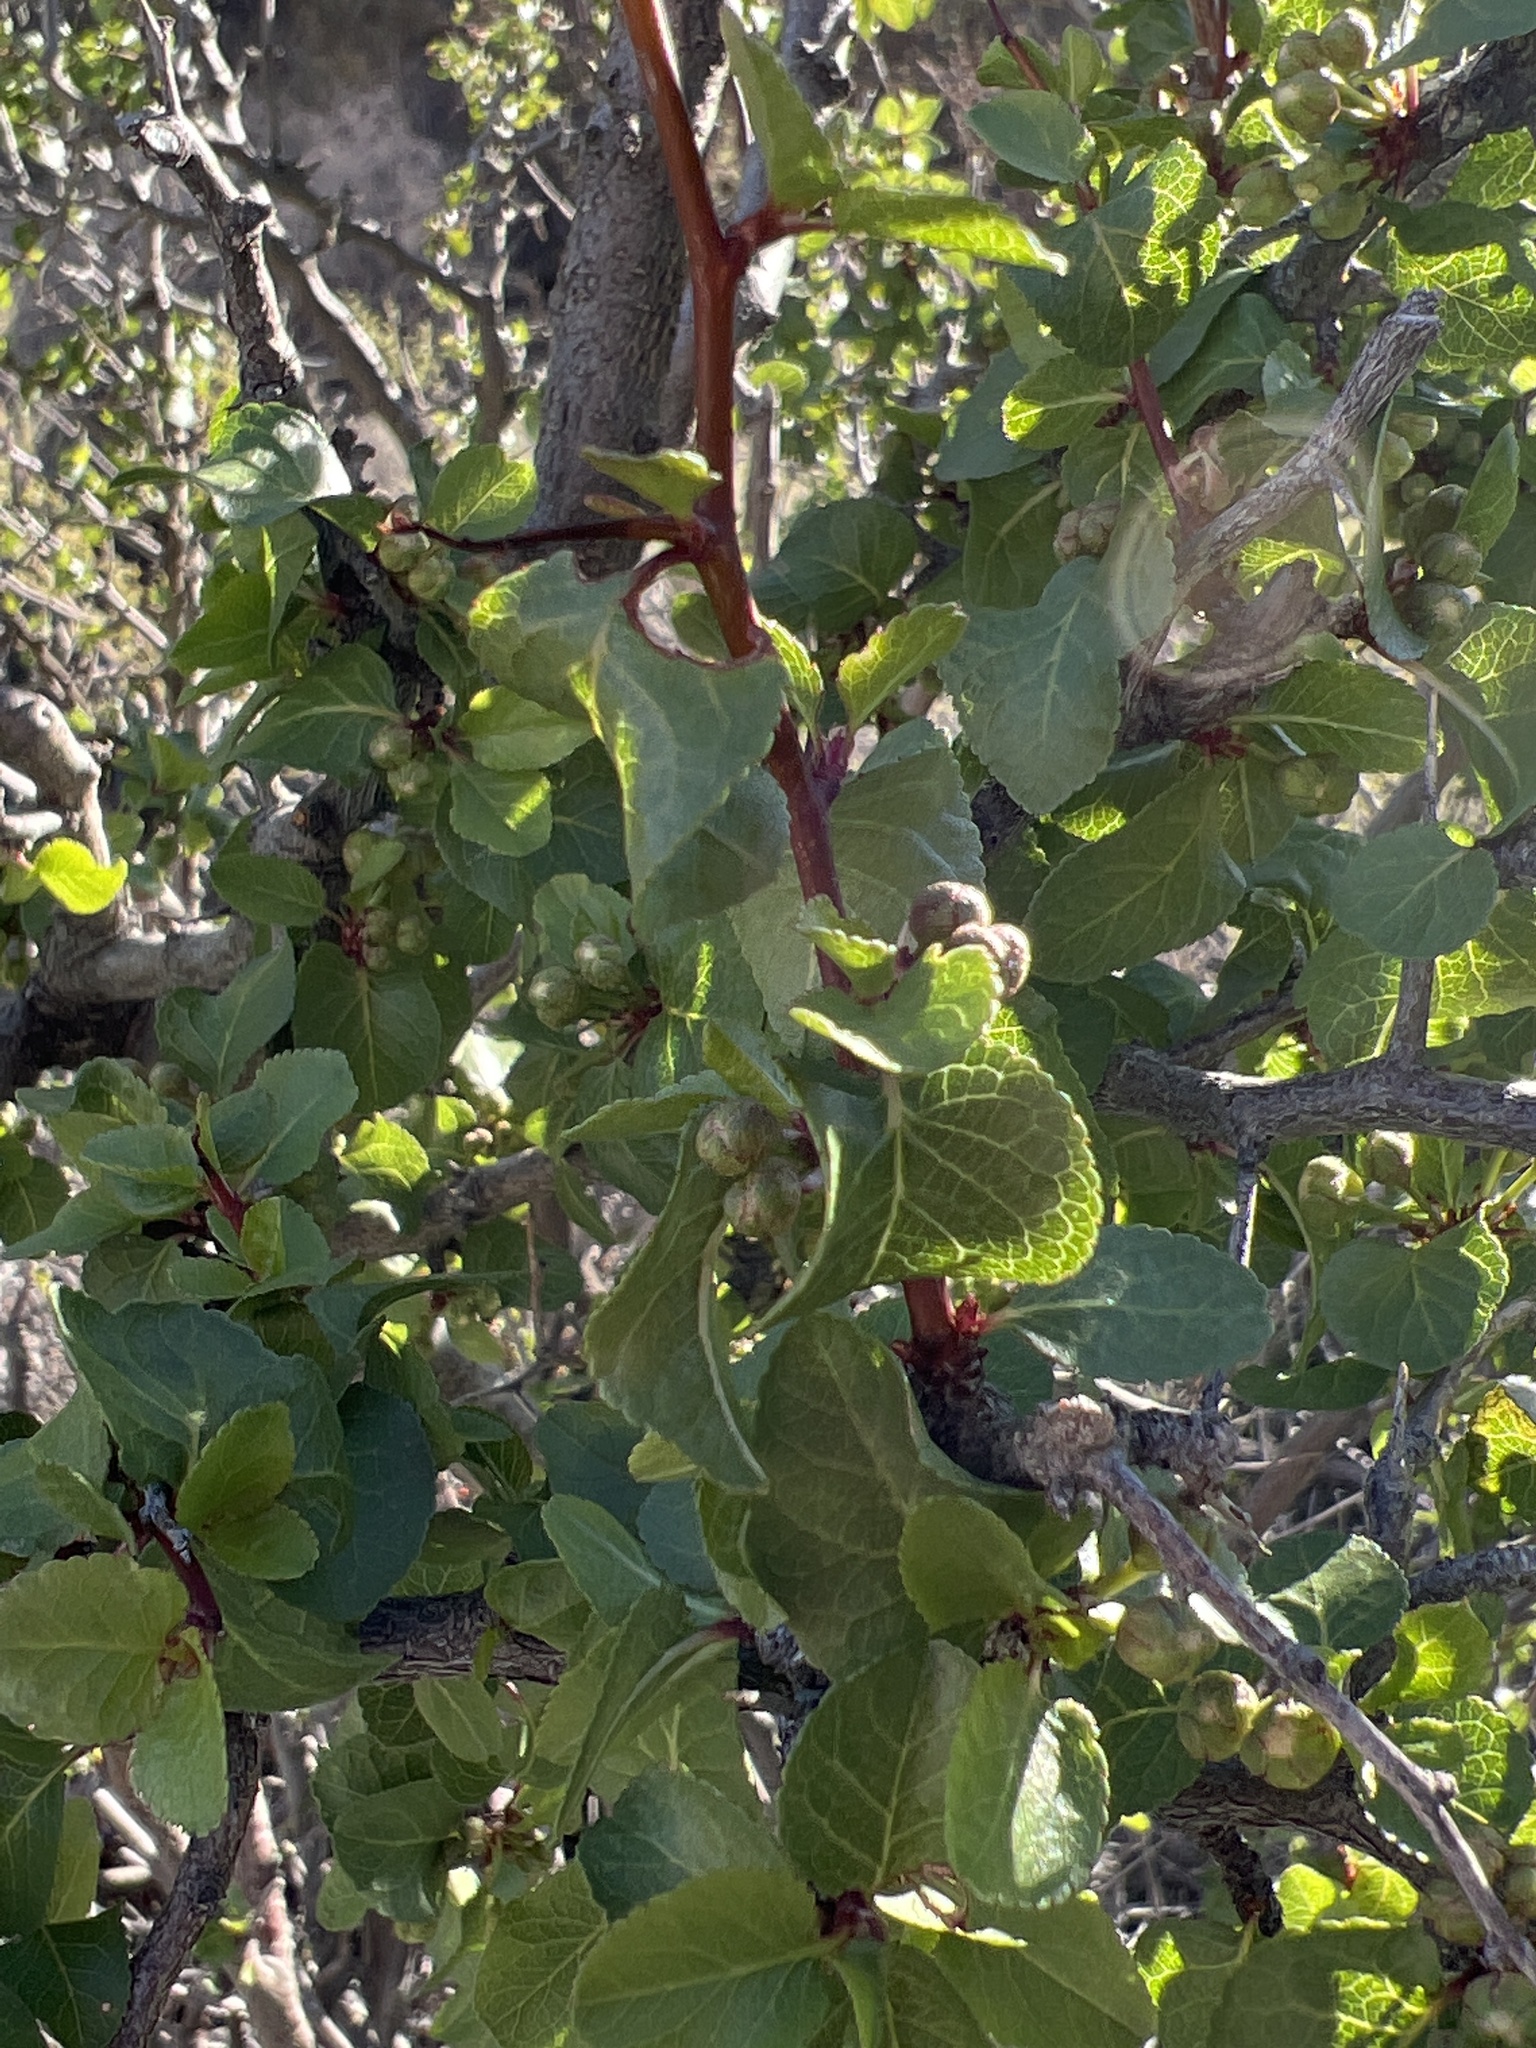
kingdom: Plantae
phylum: Tracheophyta
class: Magnoliopsida
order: Rosales
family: Rosaceae
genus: Prunus
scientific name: Prunus fremontii
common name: Desert apricot
